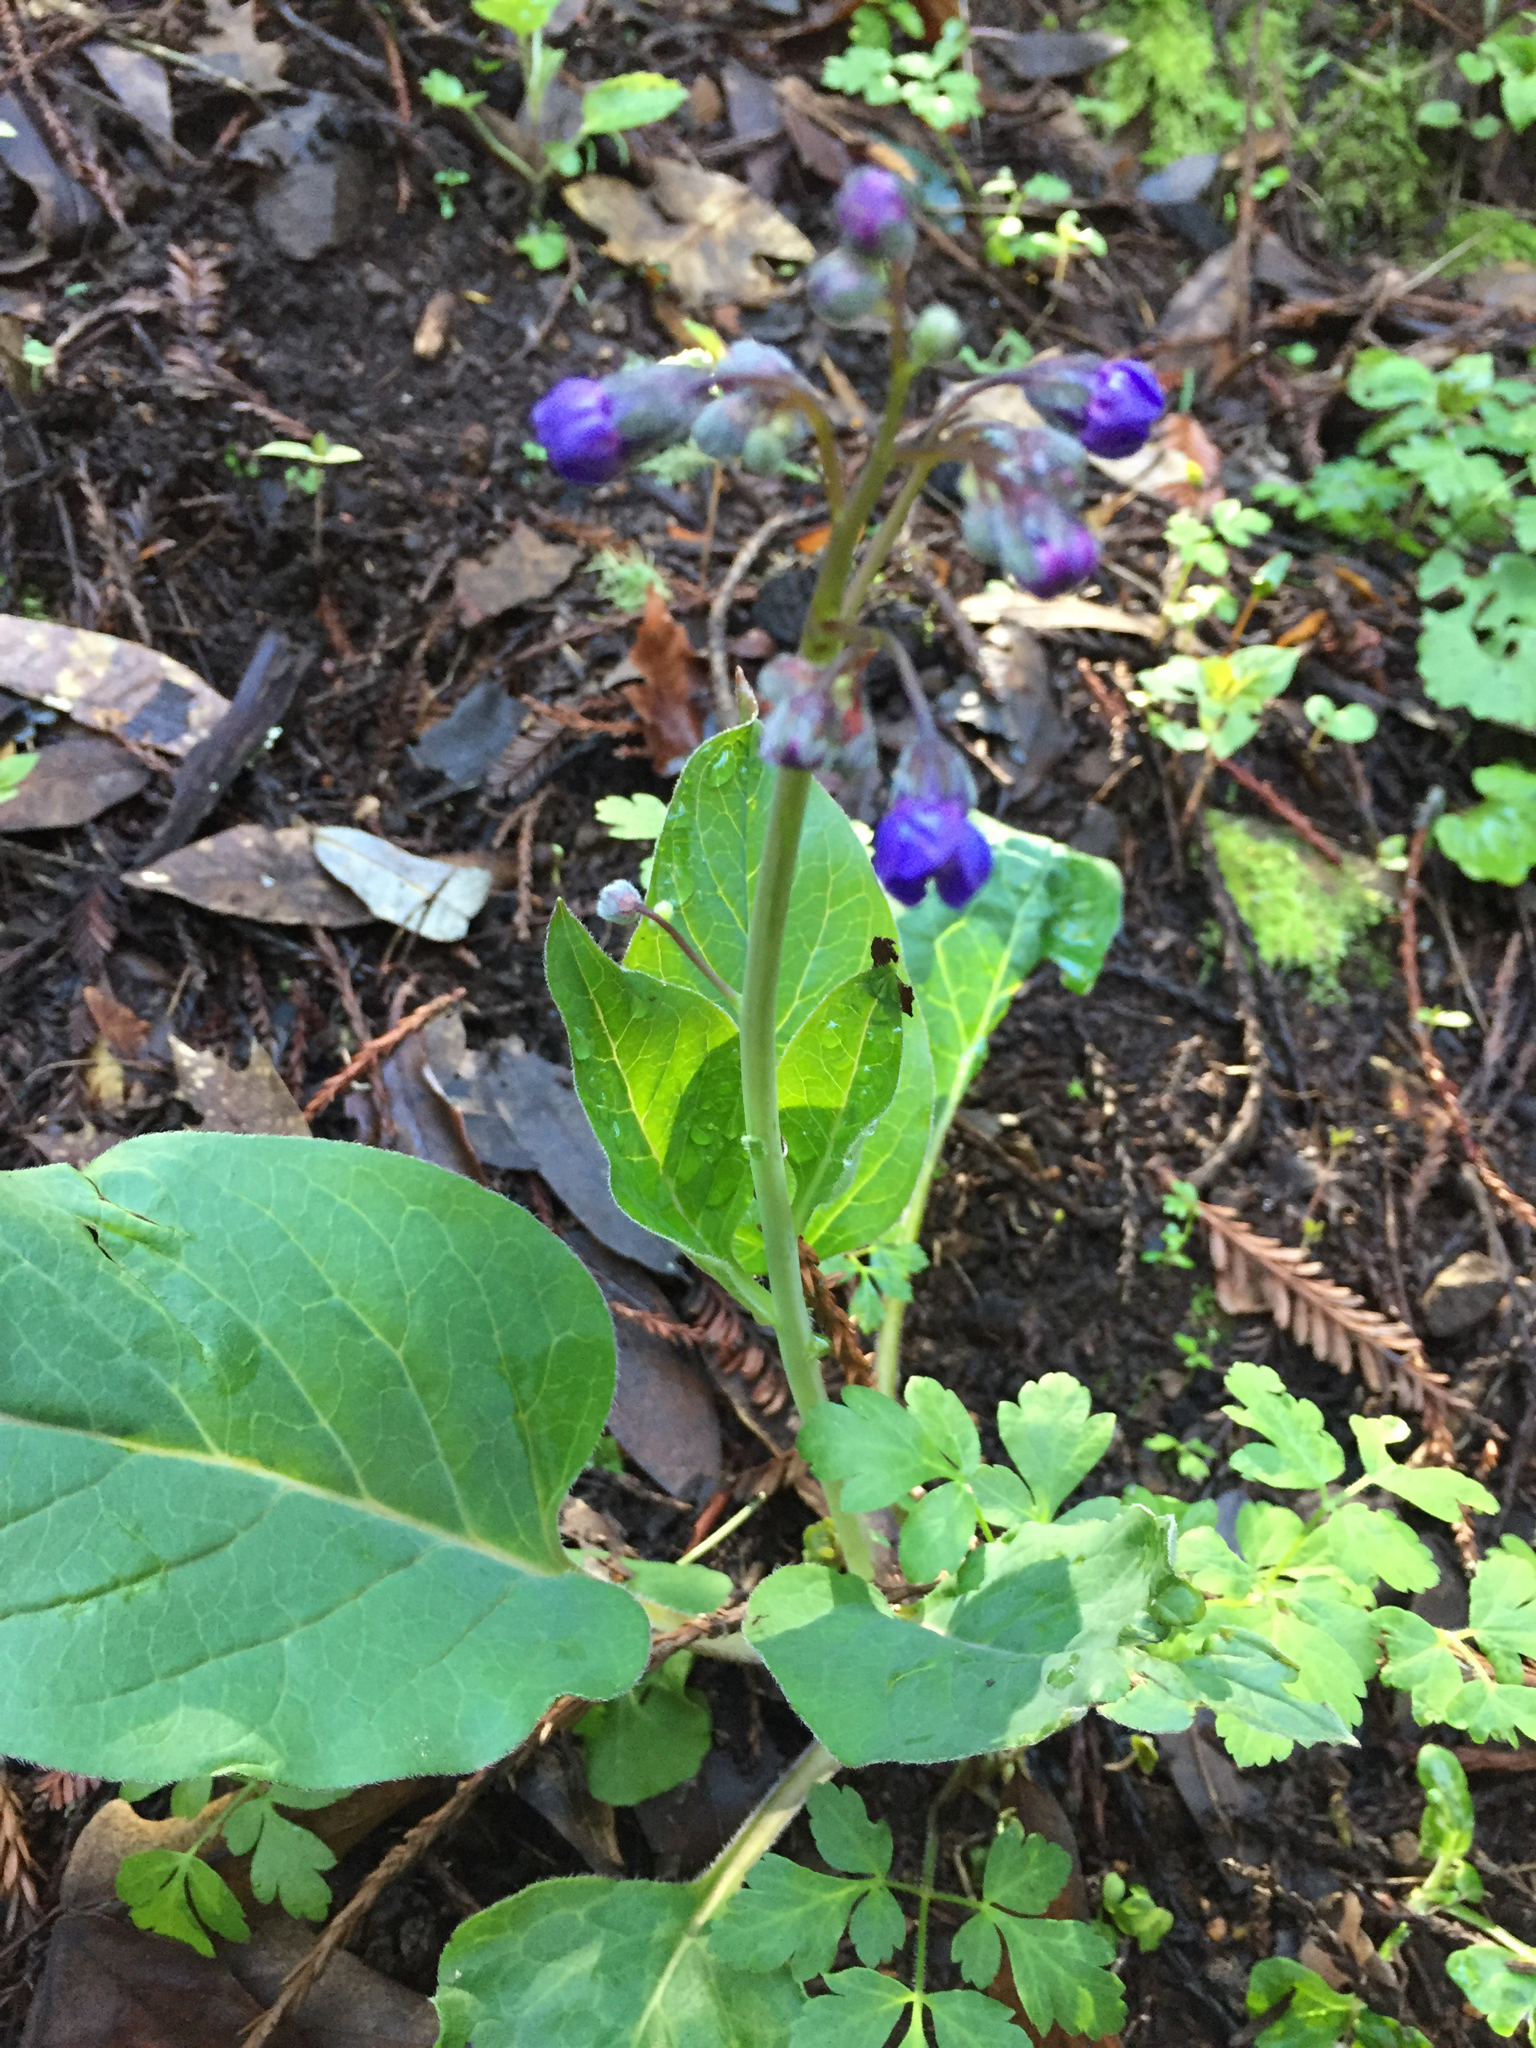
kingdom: Plantae
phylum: Tracheophyta
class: Magnoliopsida
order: Boraginales
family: Boraginaceae
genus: Adelinia
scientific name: Adelinia grande
